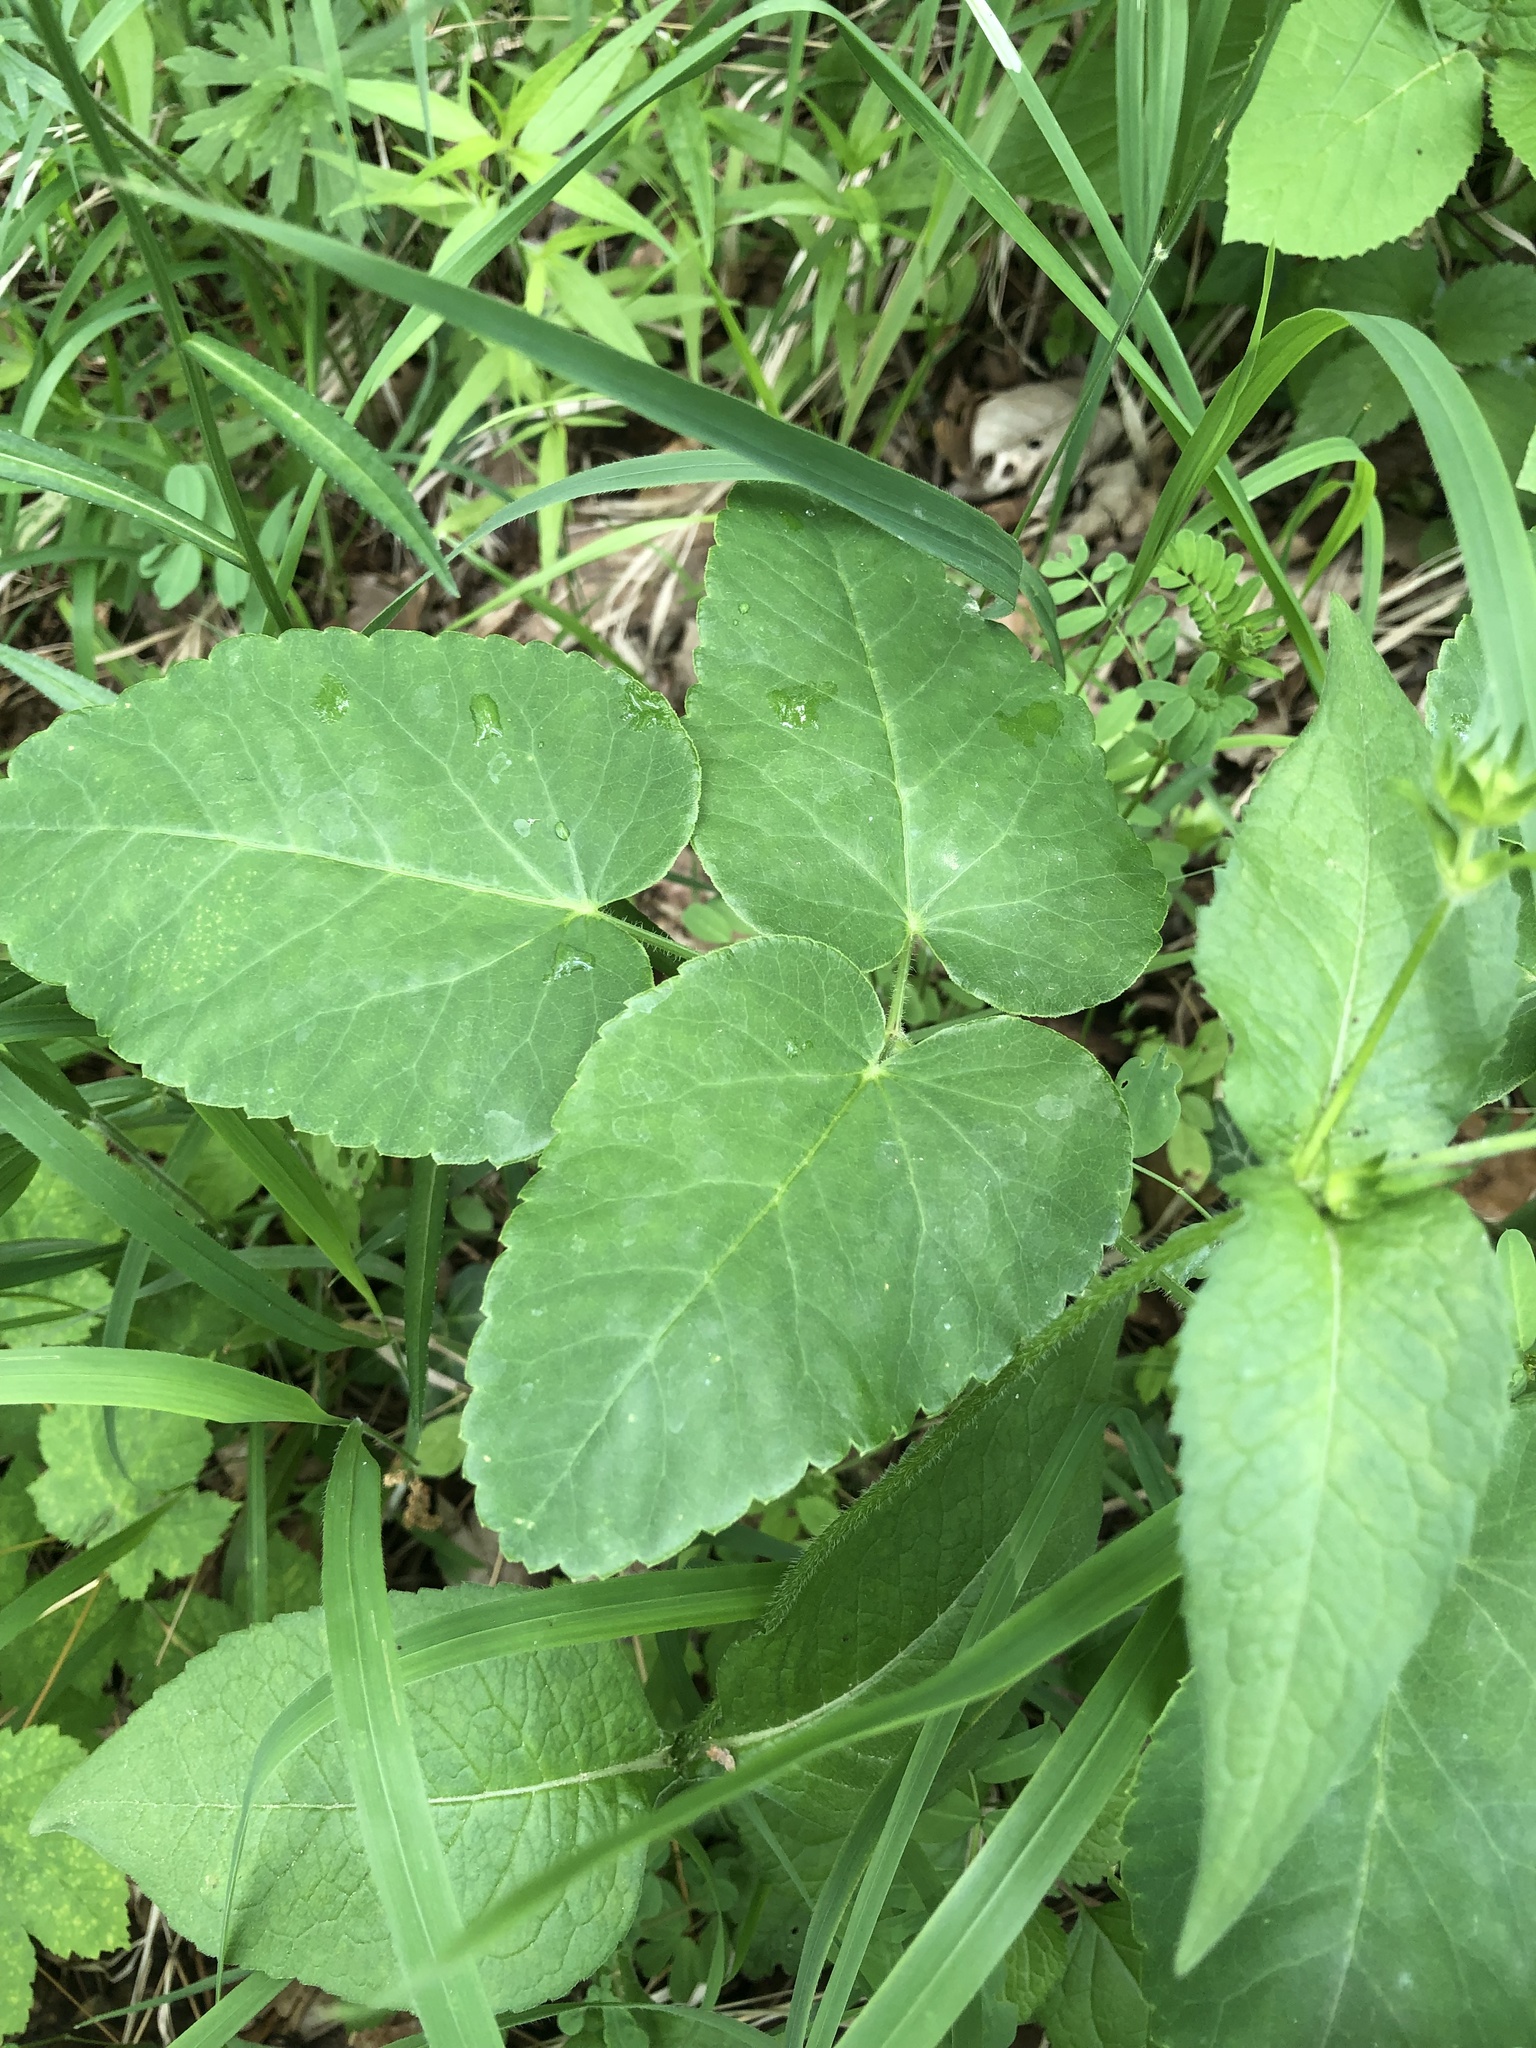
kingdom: Plantae
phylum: Tracheophyta
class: Magnoliopsida
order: Apiales
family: Apiaceae
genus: Laserpitium
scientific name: Laserpitium latifolium
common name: Broadleaf sermountain
